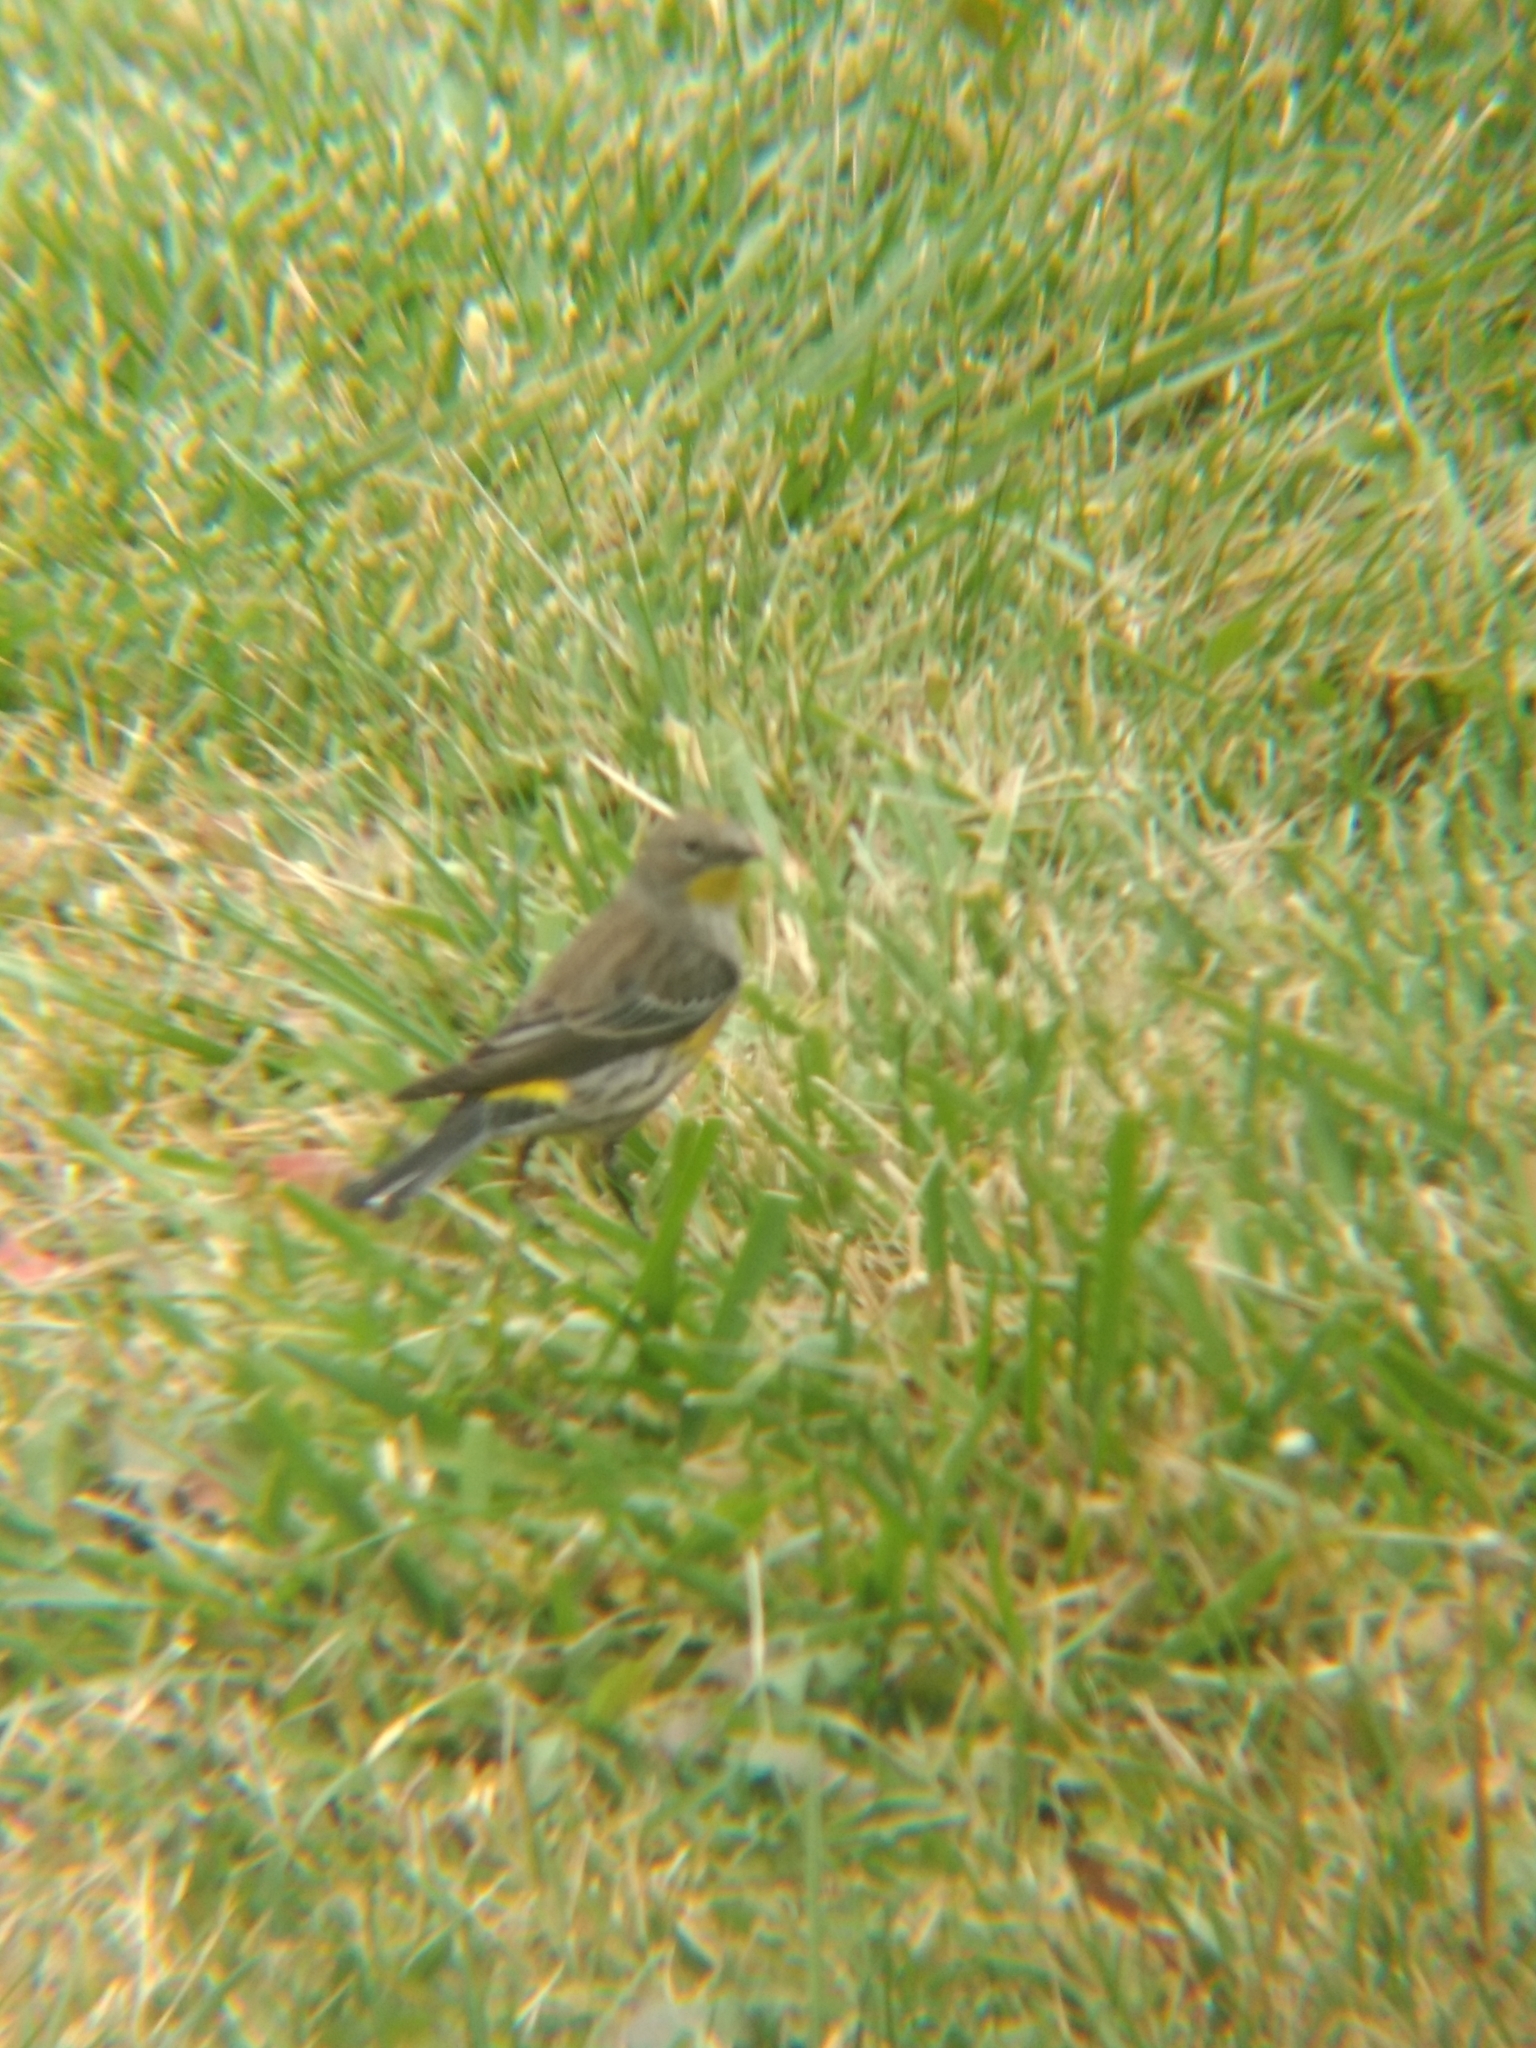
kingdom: Animalia
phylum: Chordata
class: Aves
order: Passeriformes
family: Parulidae
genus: Setophaga
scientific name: Setophaga coronata
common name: Myrtle warbler
